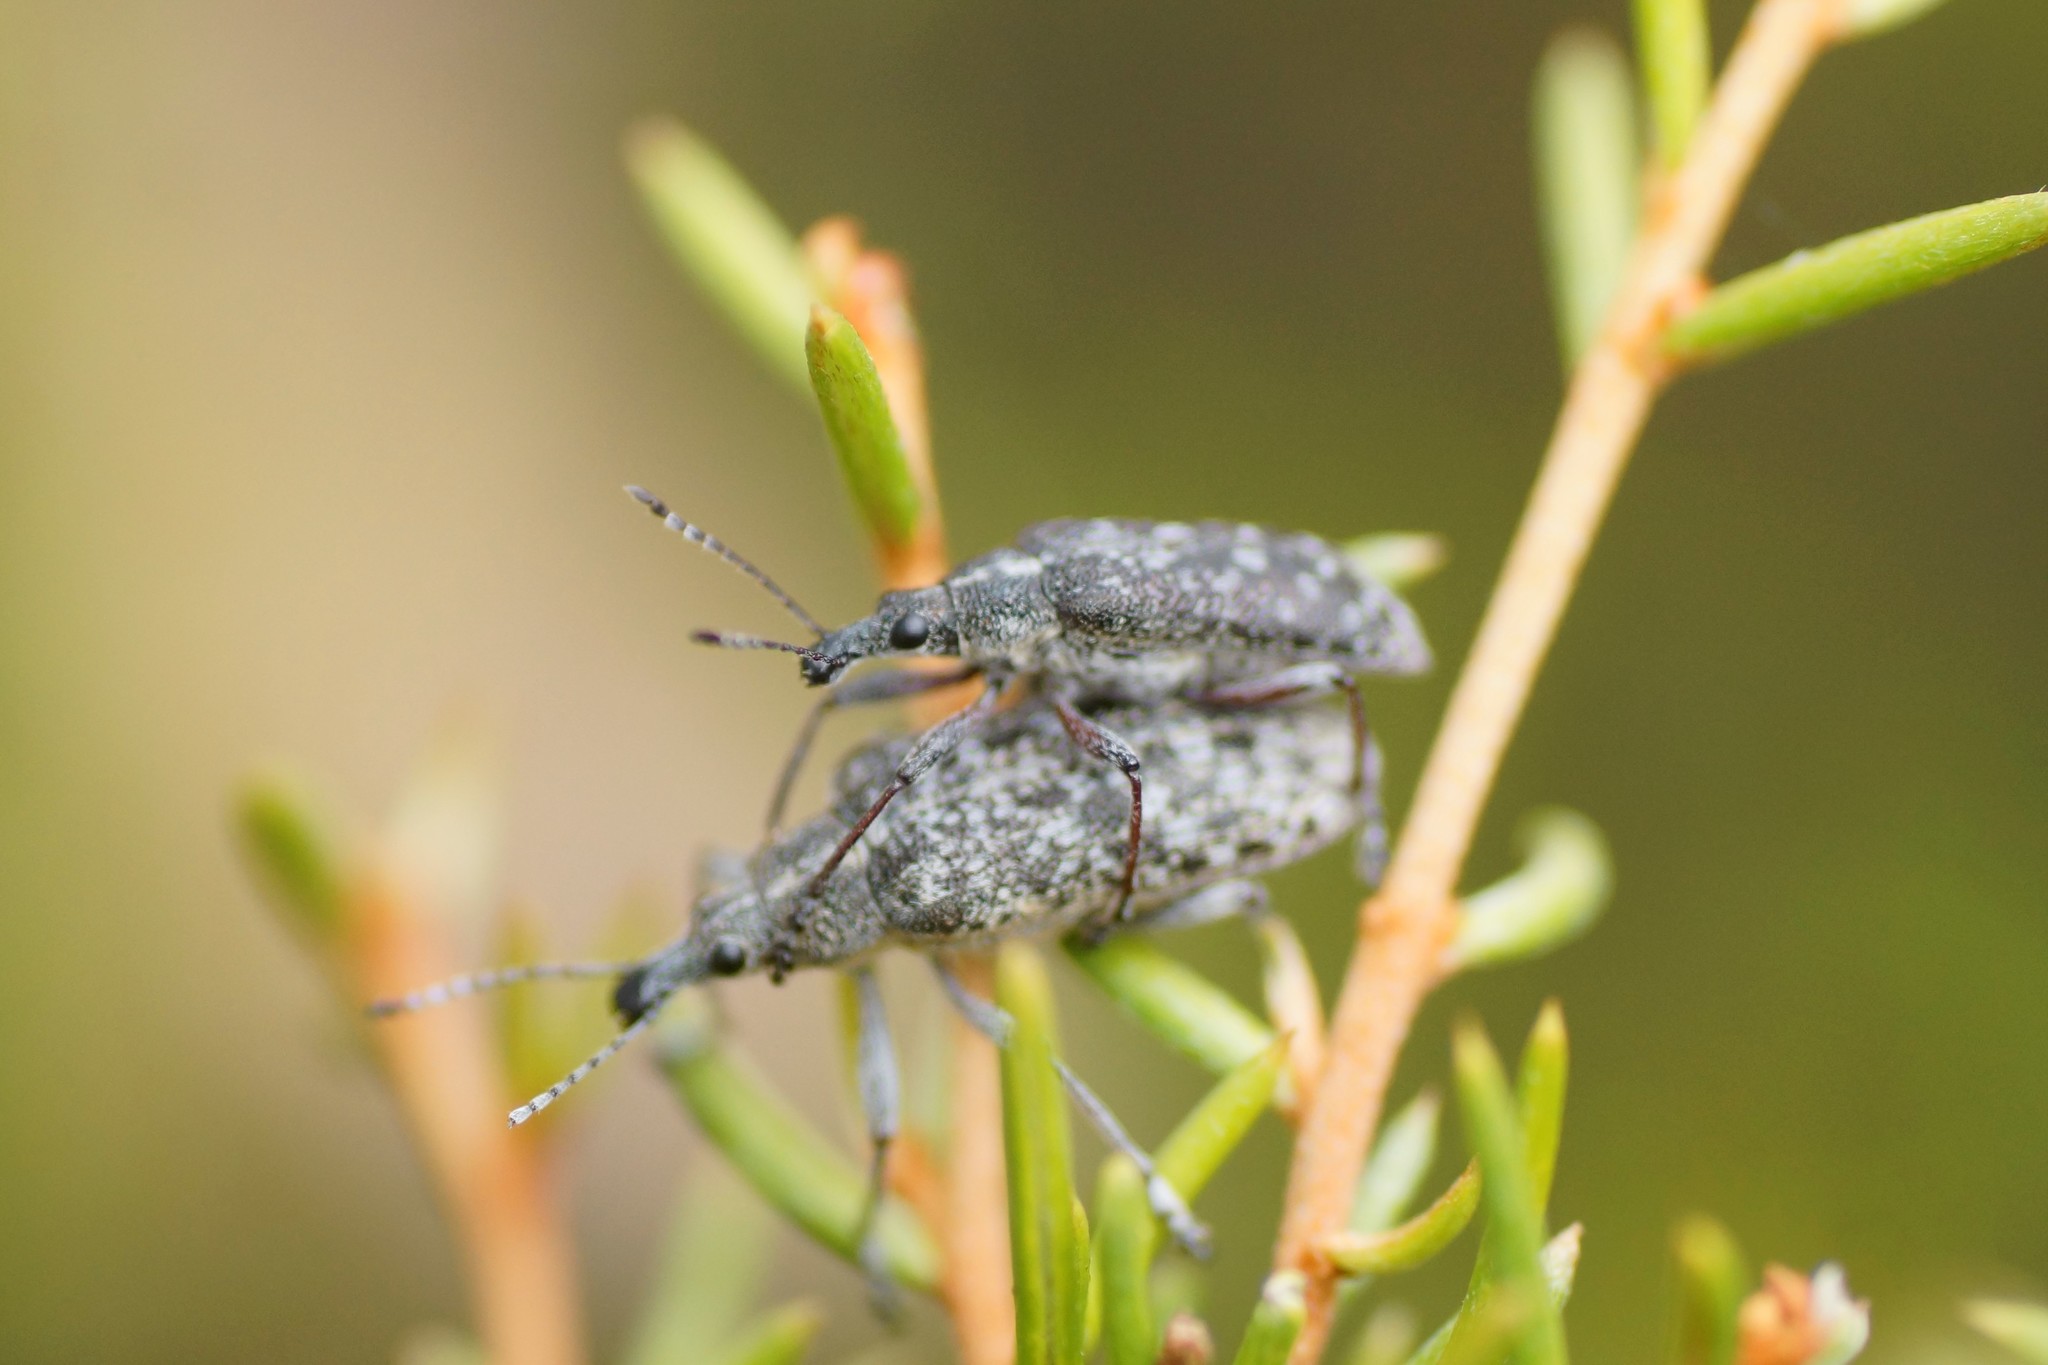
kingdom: Animalia
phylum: Arthropoda
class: Insecta
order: Coleoptera
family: Belidae
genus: Pachyura
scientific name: Pachyura australis
